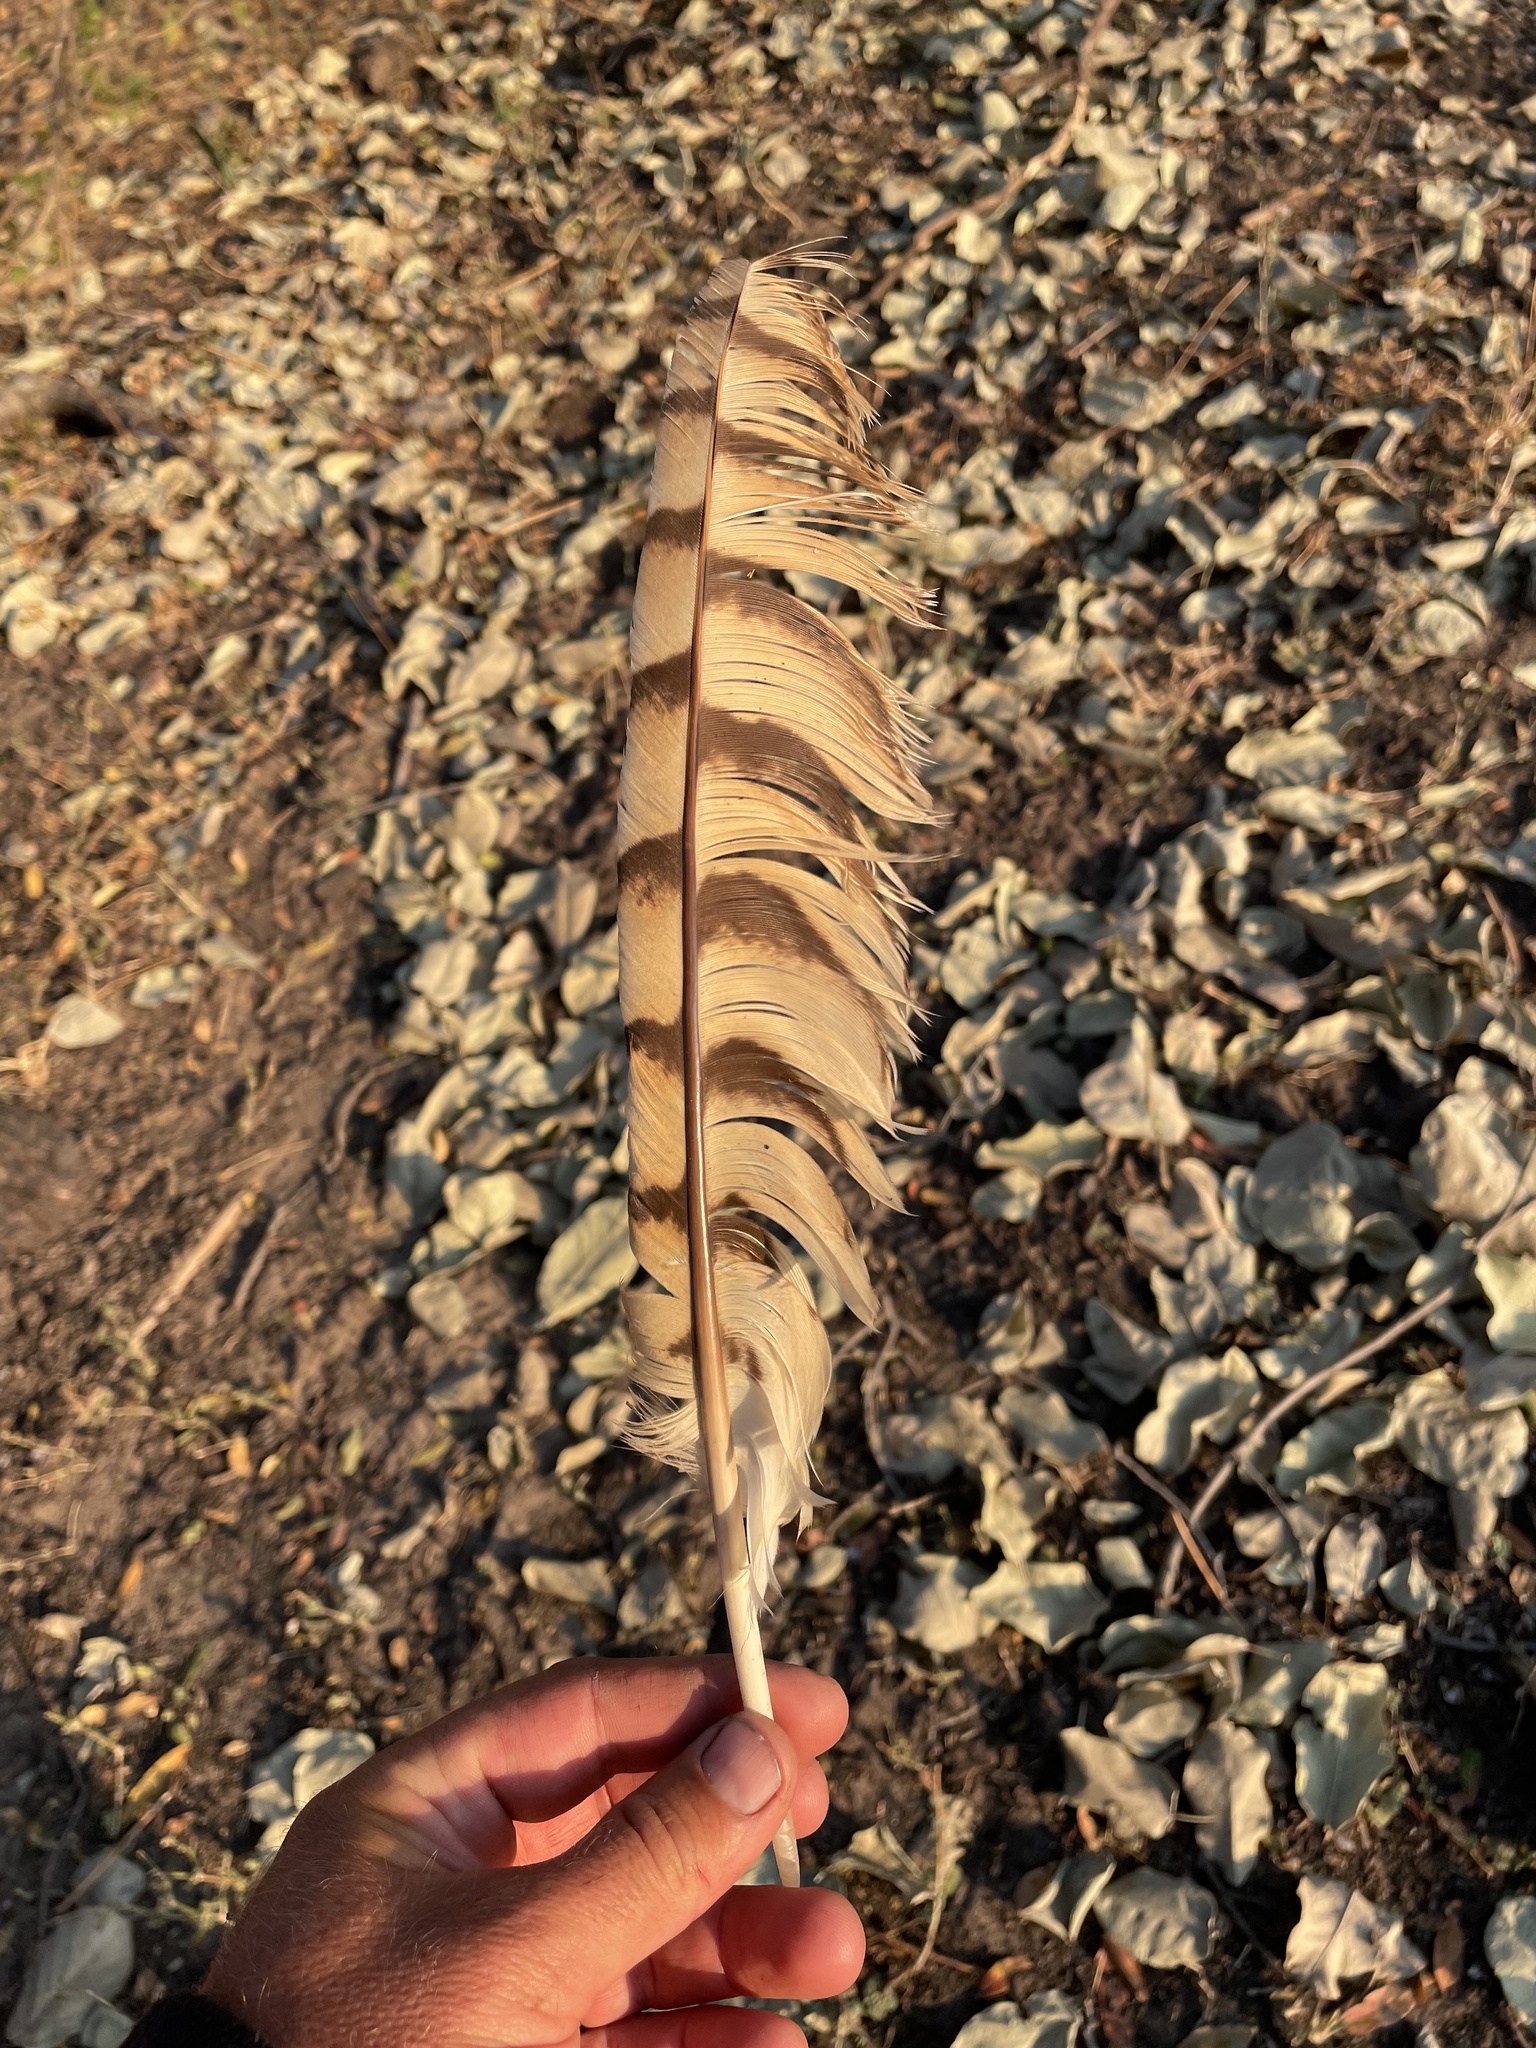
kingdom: Animalia
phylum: Chordata
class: Aves
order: Strigiformes
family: Strigidae
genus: Scotopelia
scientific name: Scotopelia peli
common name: Pel's fishing owl
